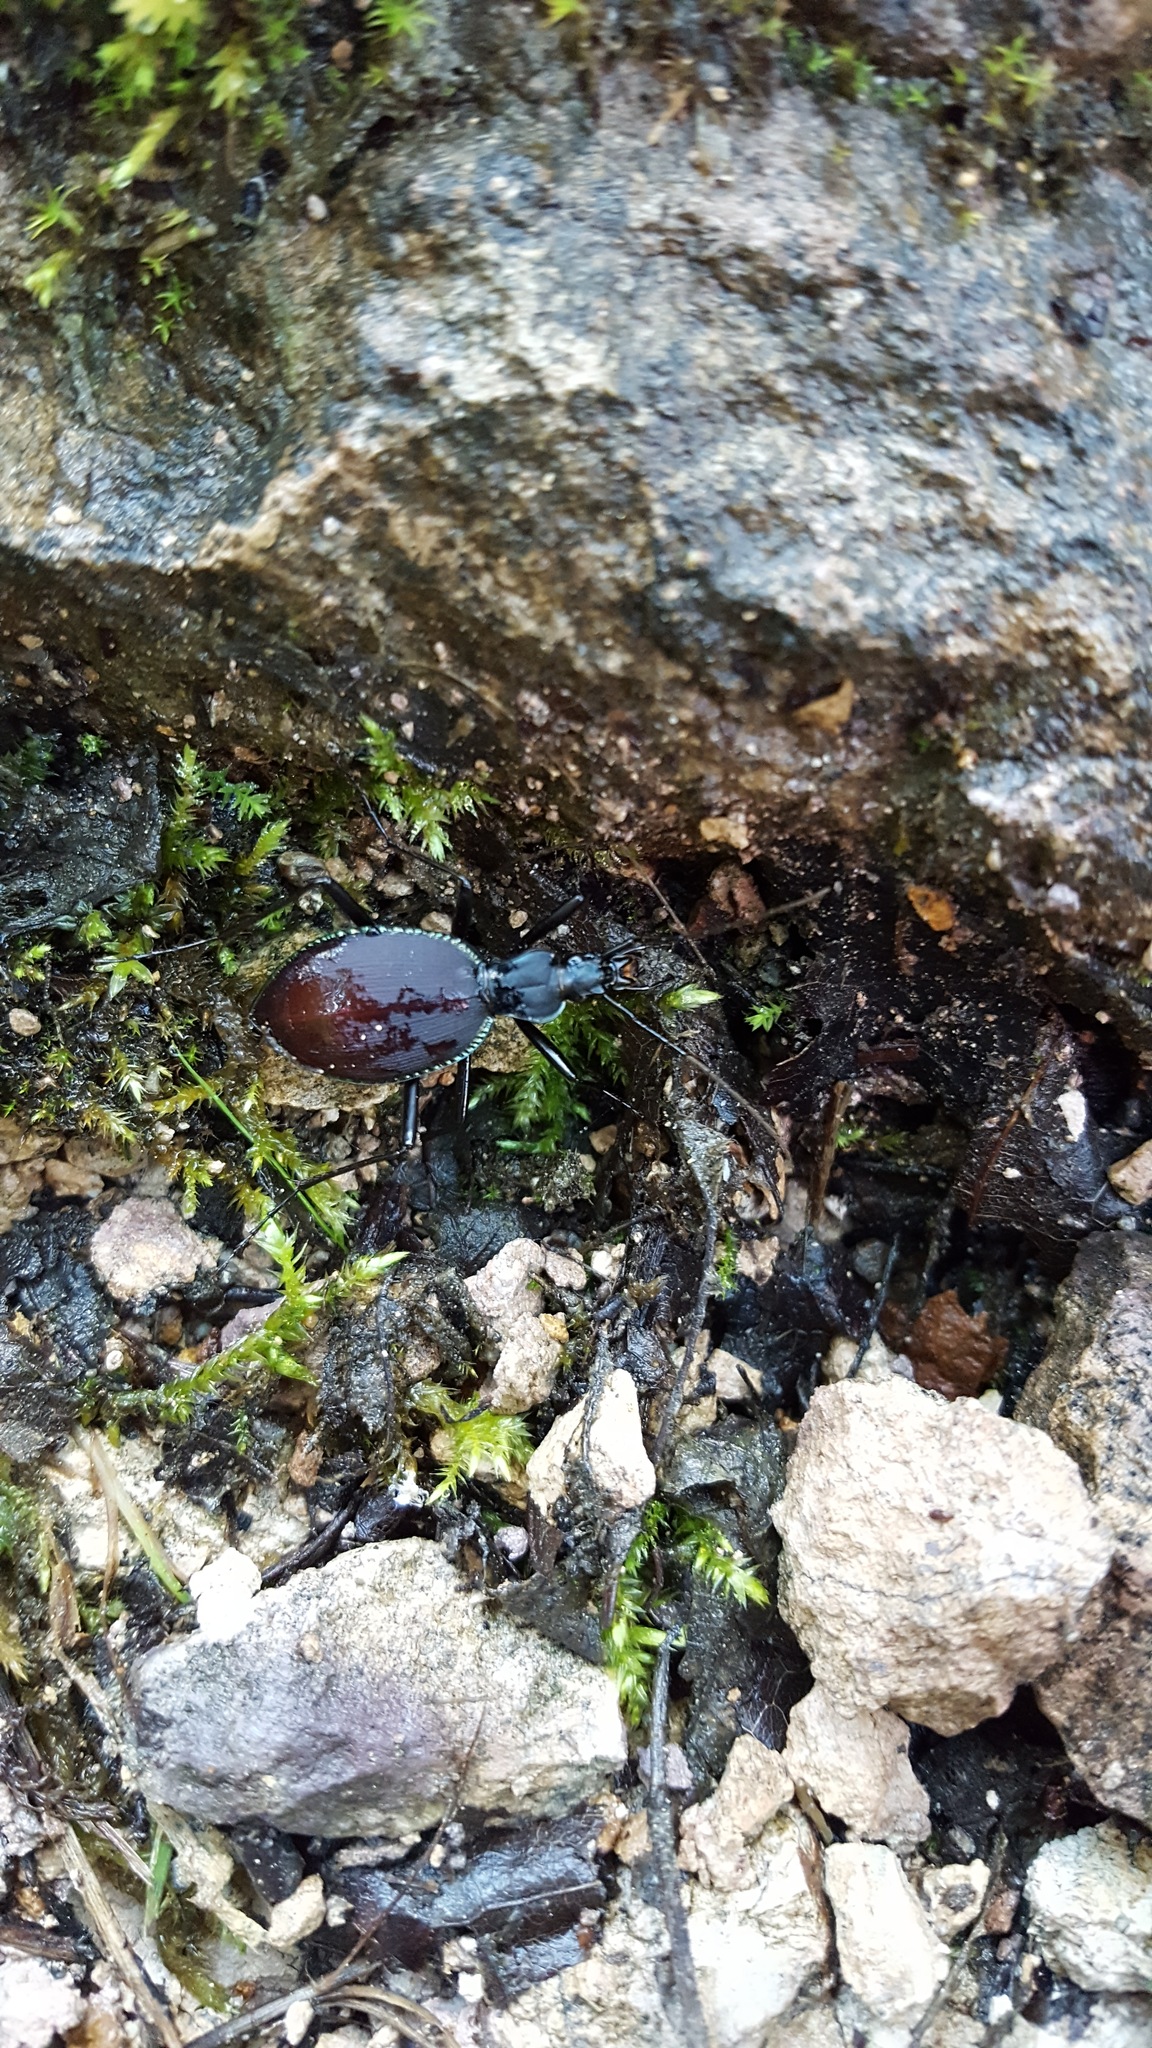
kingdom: Animalia
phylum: Arthropoda
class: Insecta
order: Coleoptera
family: Carabidae
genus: Scaphinotus
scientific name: Scaphinotus angusticollis
